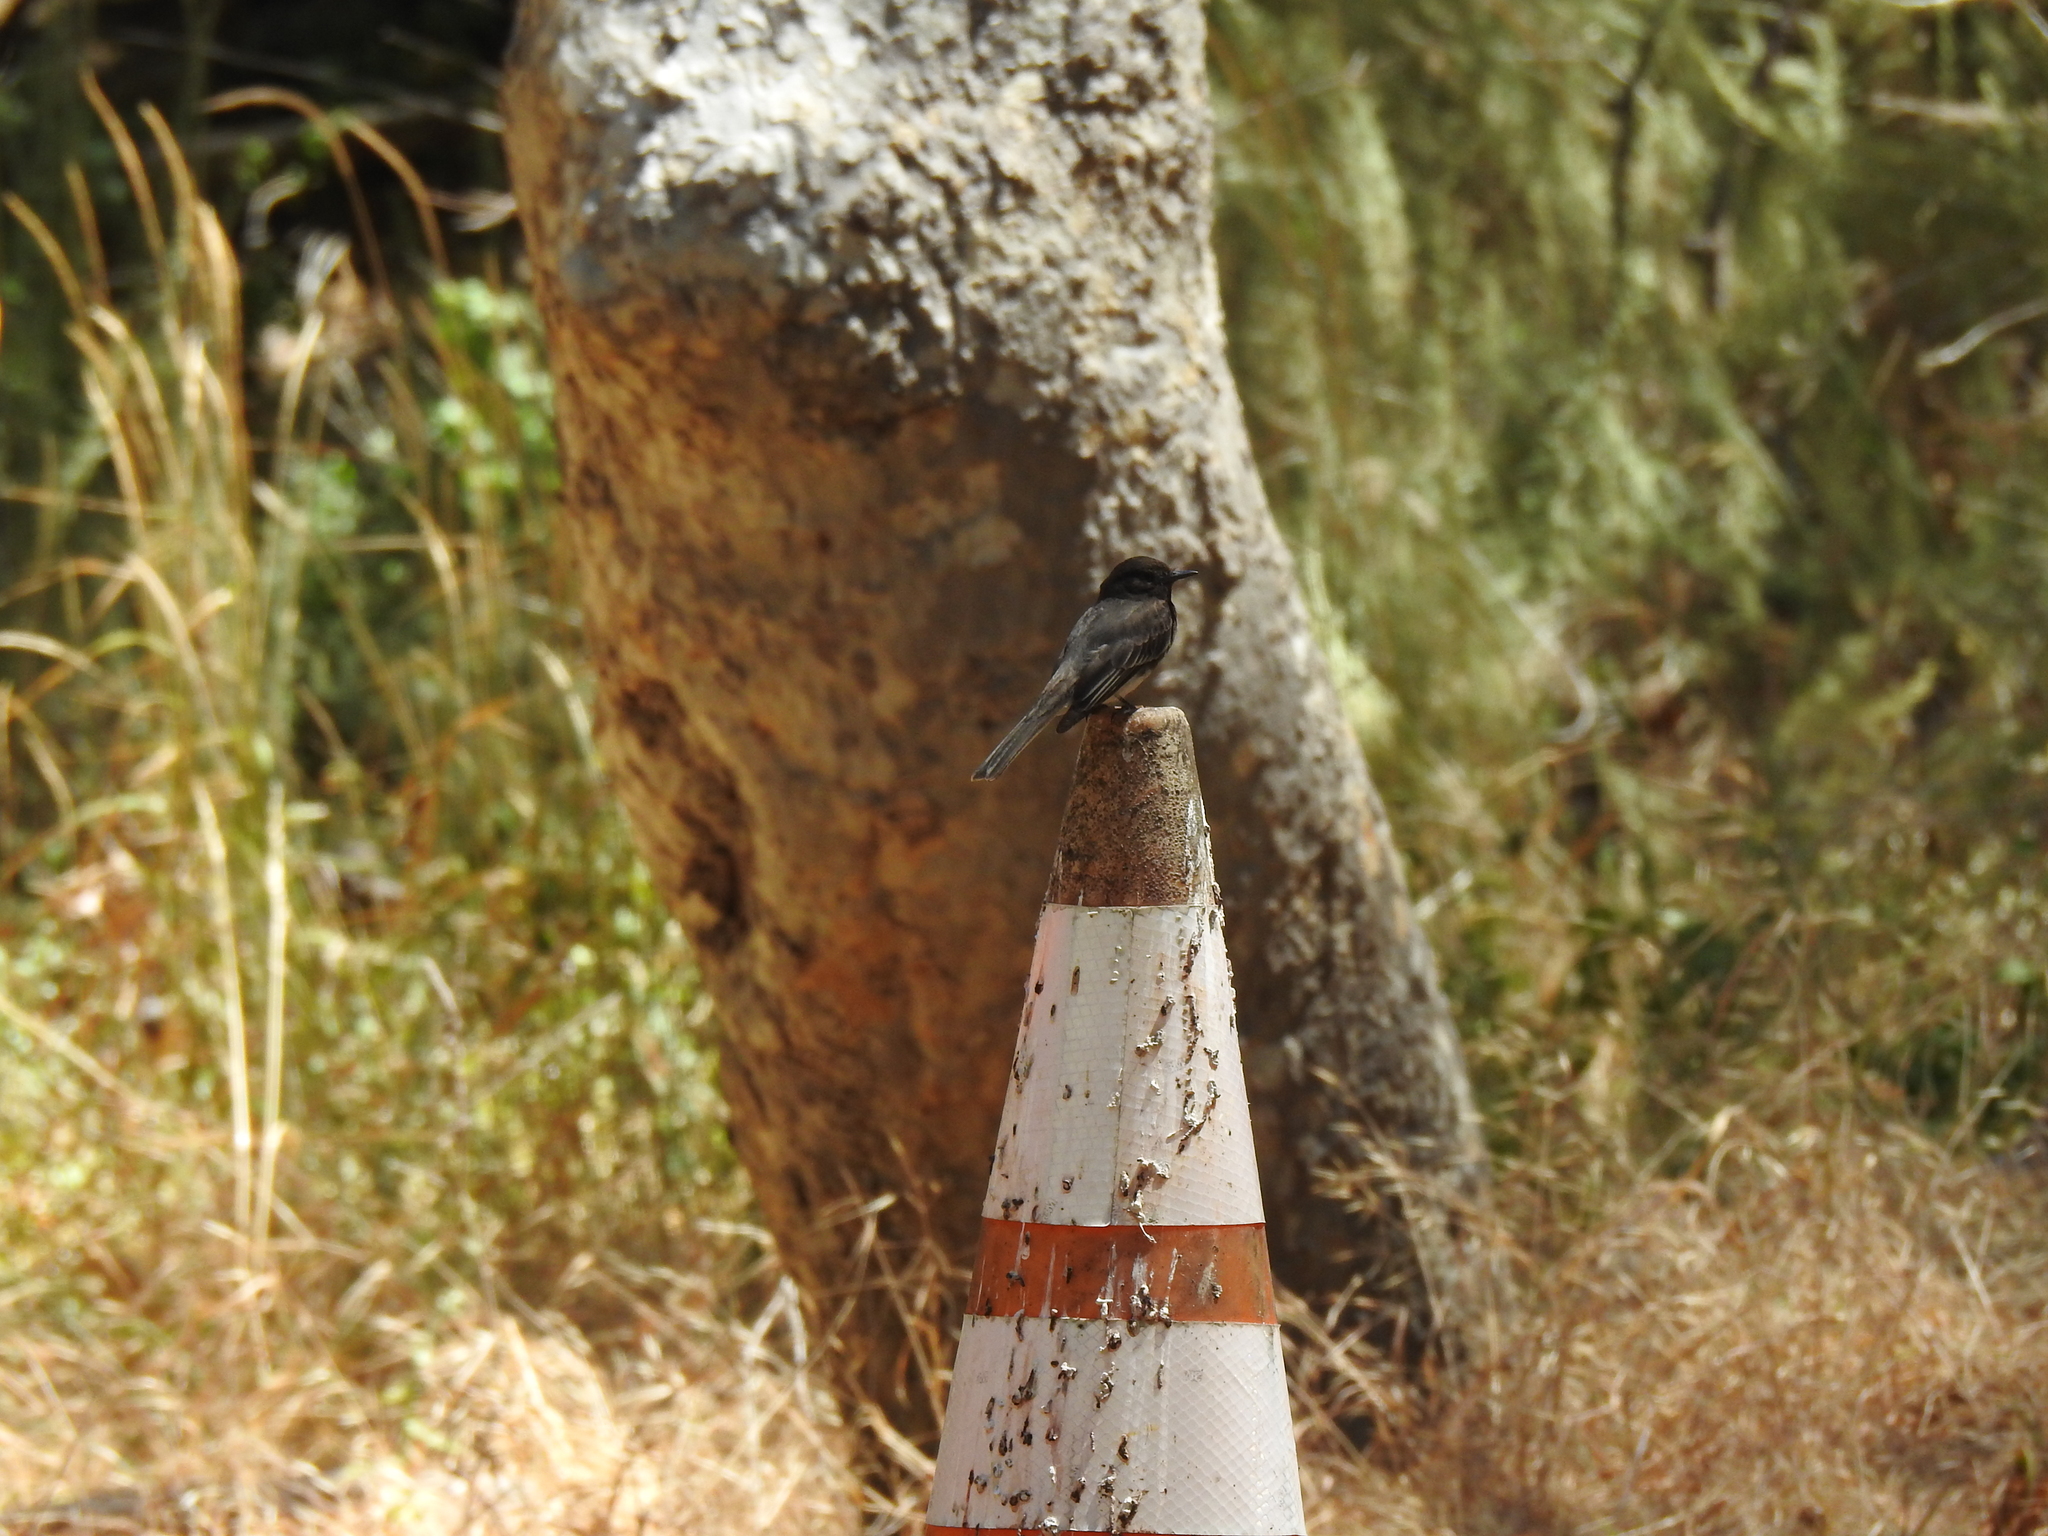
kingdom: Animalia
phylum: Chordata
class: Aves
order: Passeriformes
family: Tyrannidae
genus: Sayornis
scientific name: Sayornis nigricans
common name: Black phoebe
